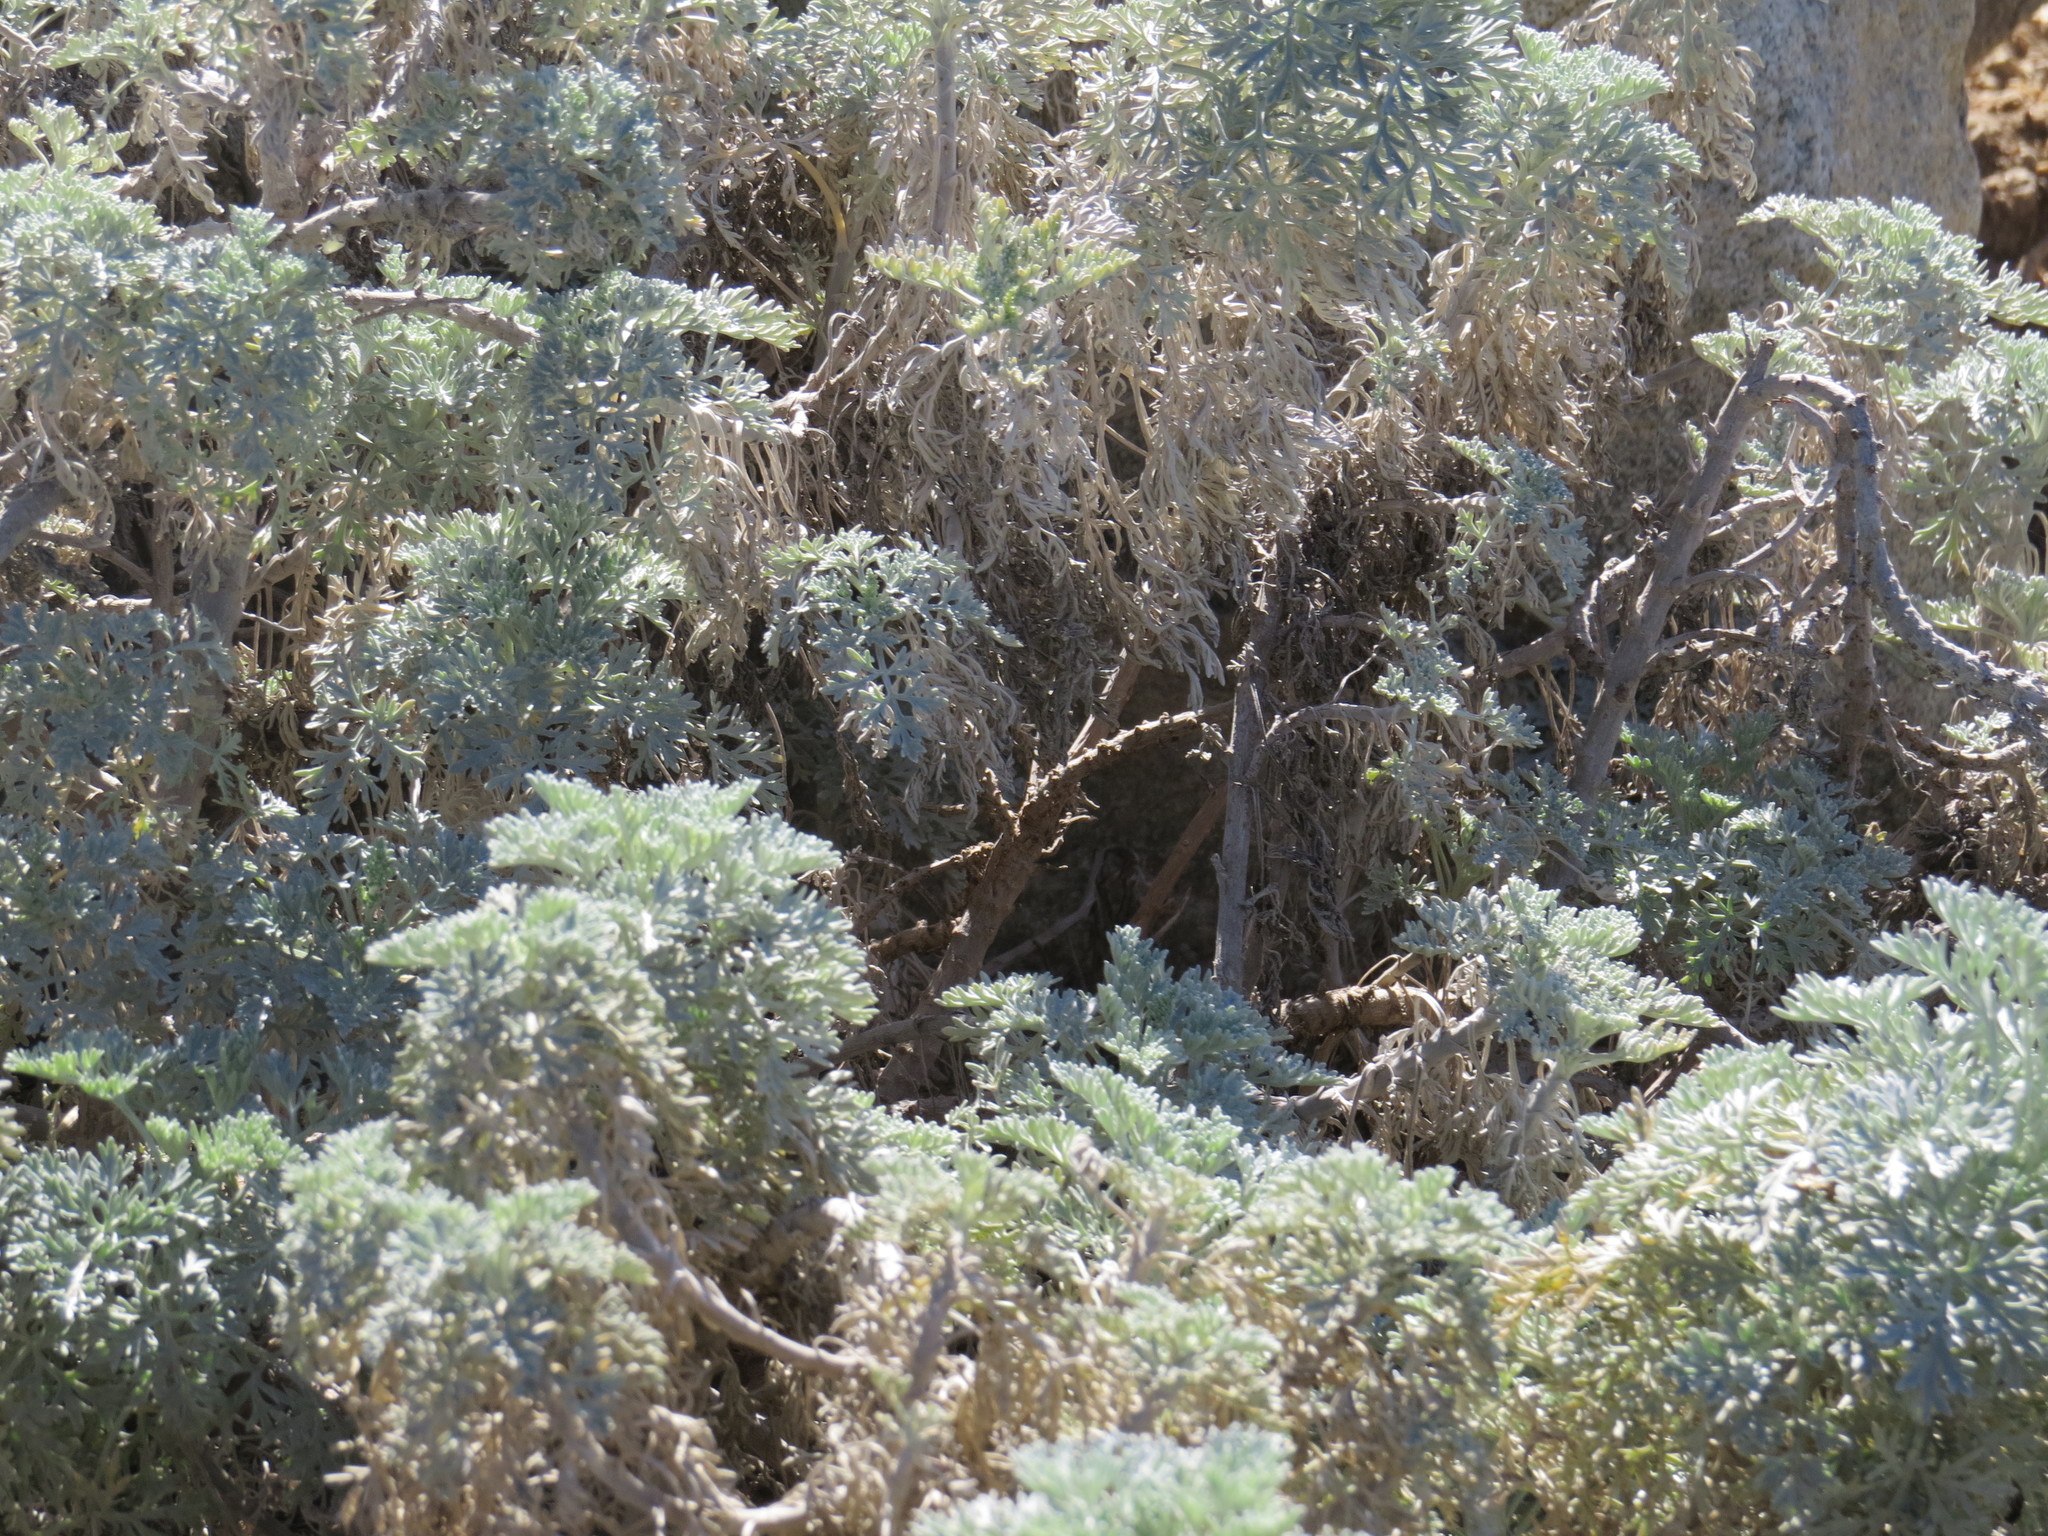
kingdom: Plantae
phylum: Tracheophyta
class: Magnoliopsida
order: Asterales
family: Asteraceae
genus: Artemisia
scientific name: Artemisia
